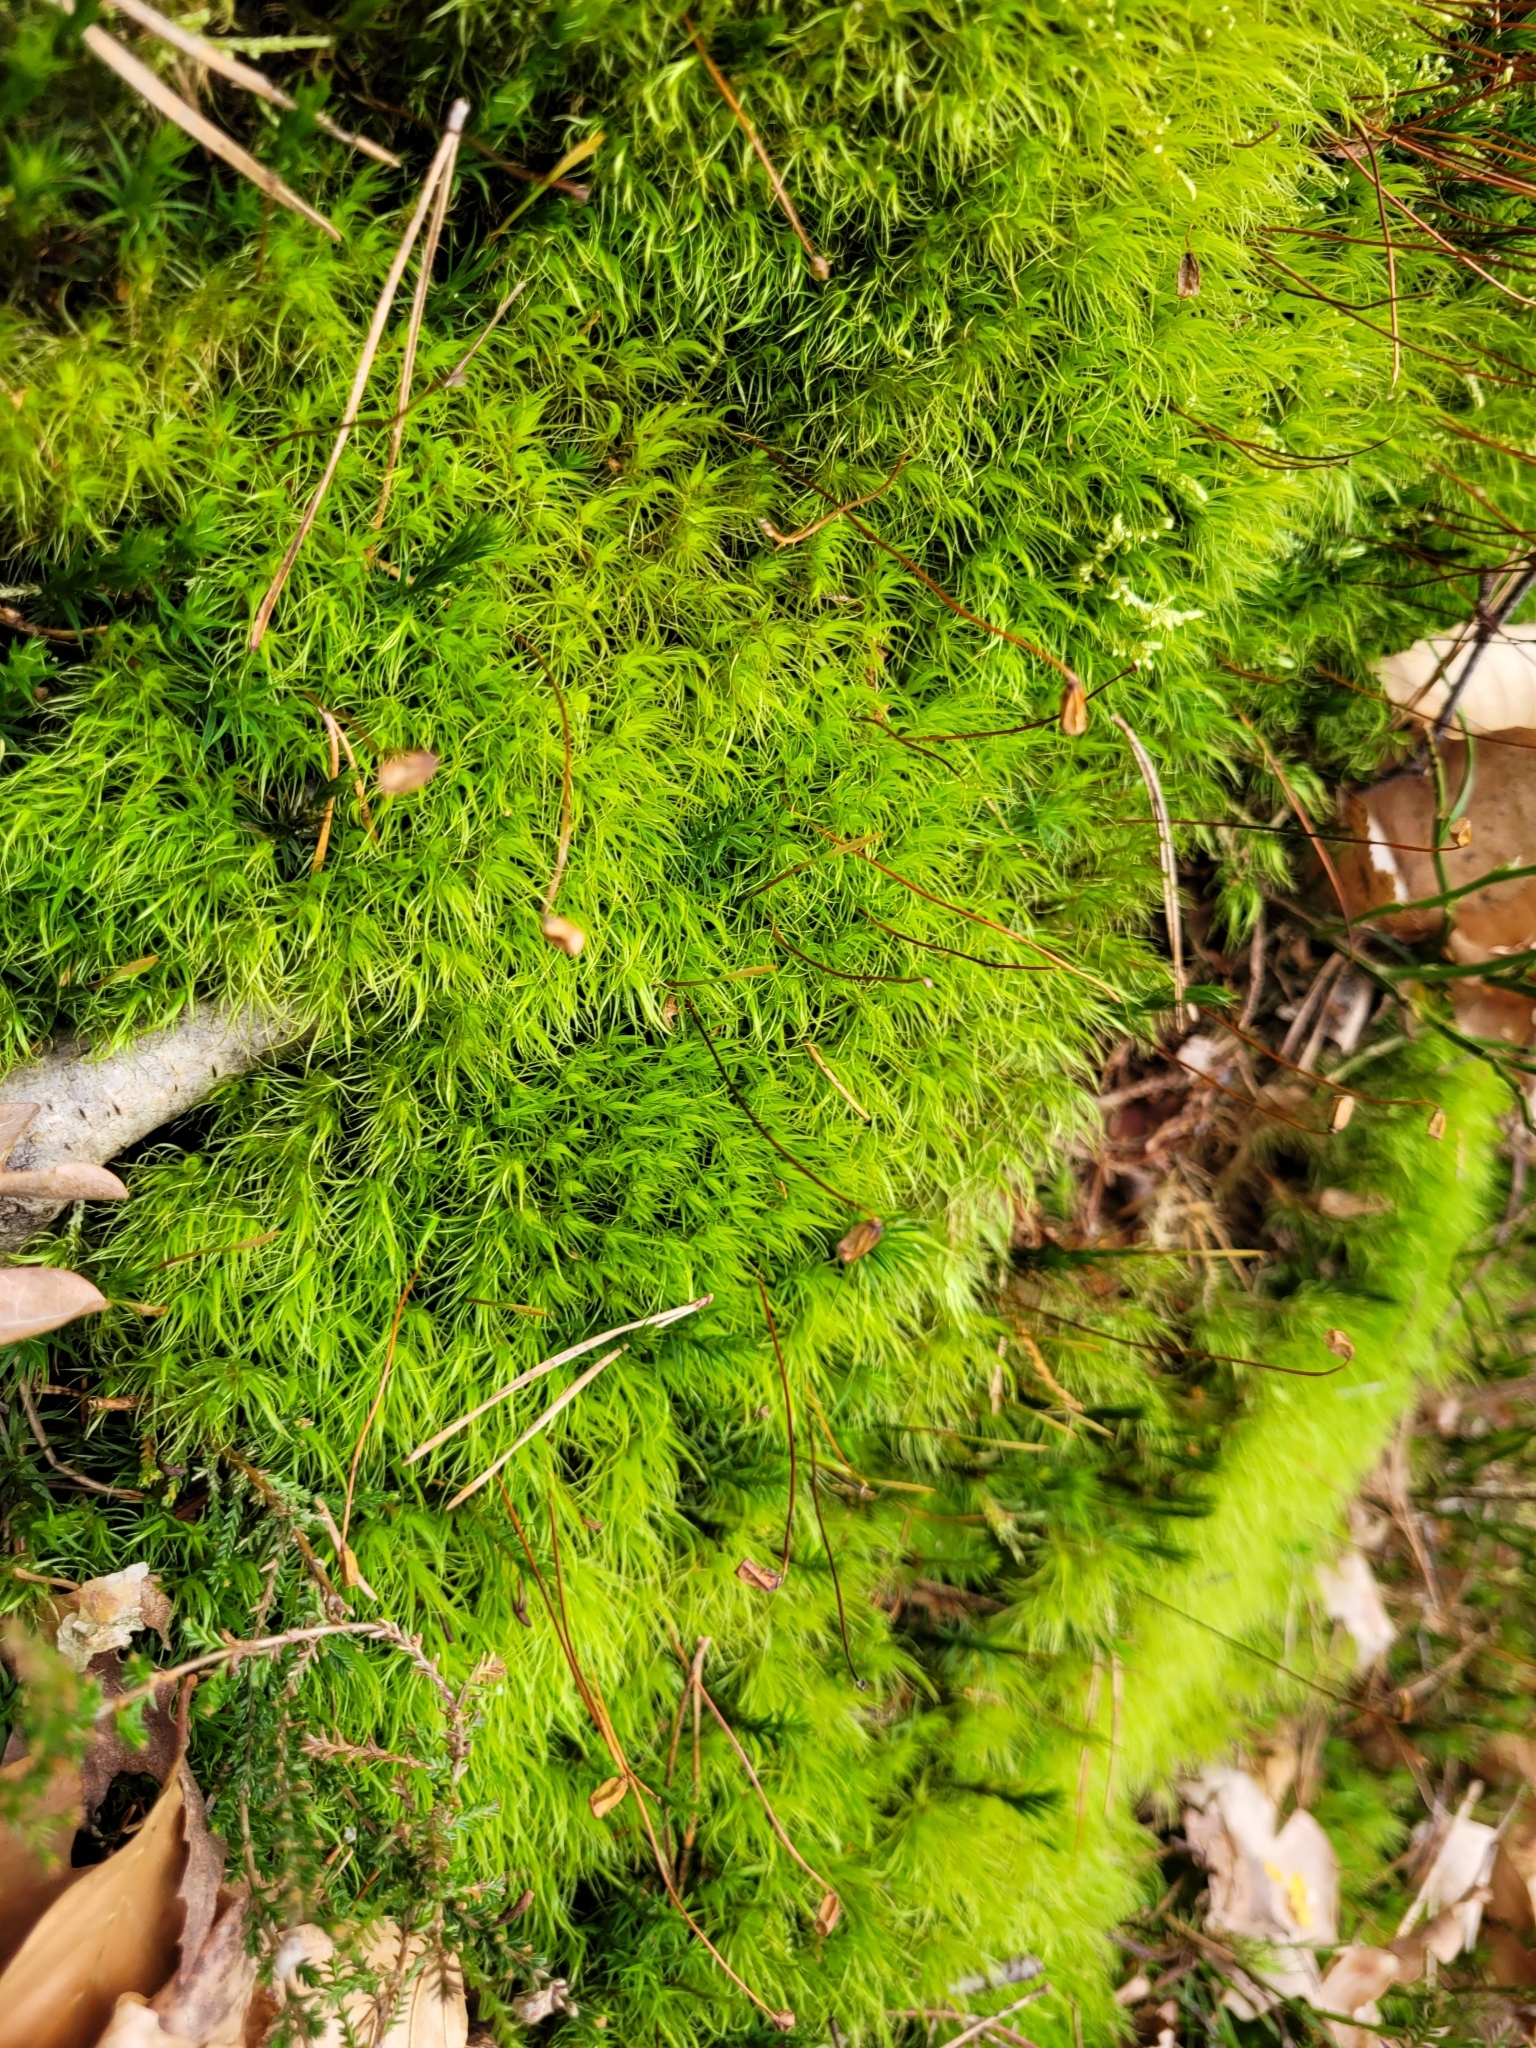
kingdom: Plantae
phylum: Bryophyta
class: Bryopsida
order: Dicranales
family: Dicranaceae
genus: Dicranum
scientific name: Dicranum scoparium
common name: Broom fork-moss
